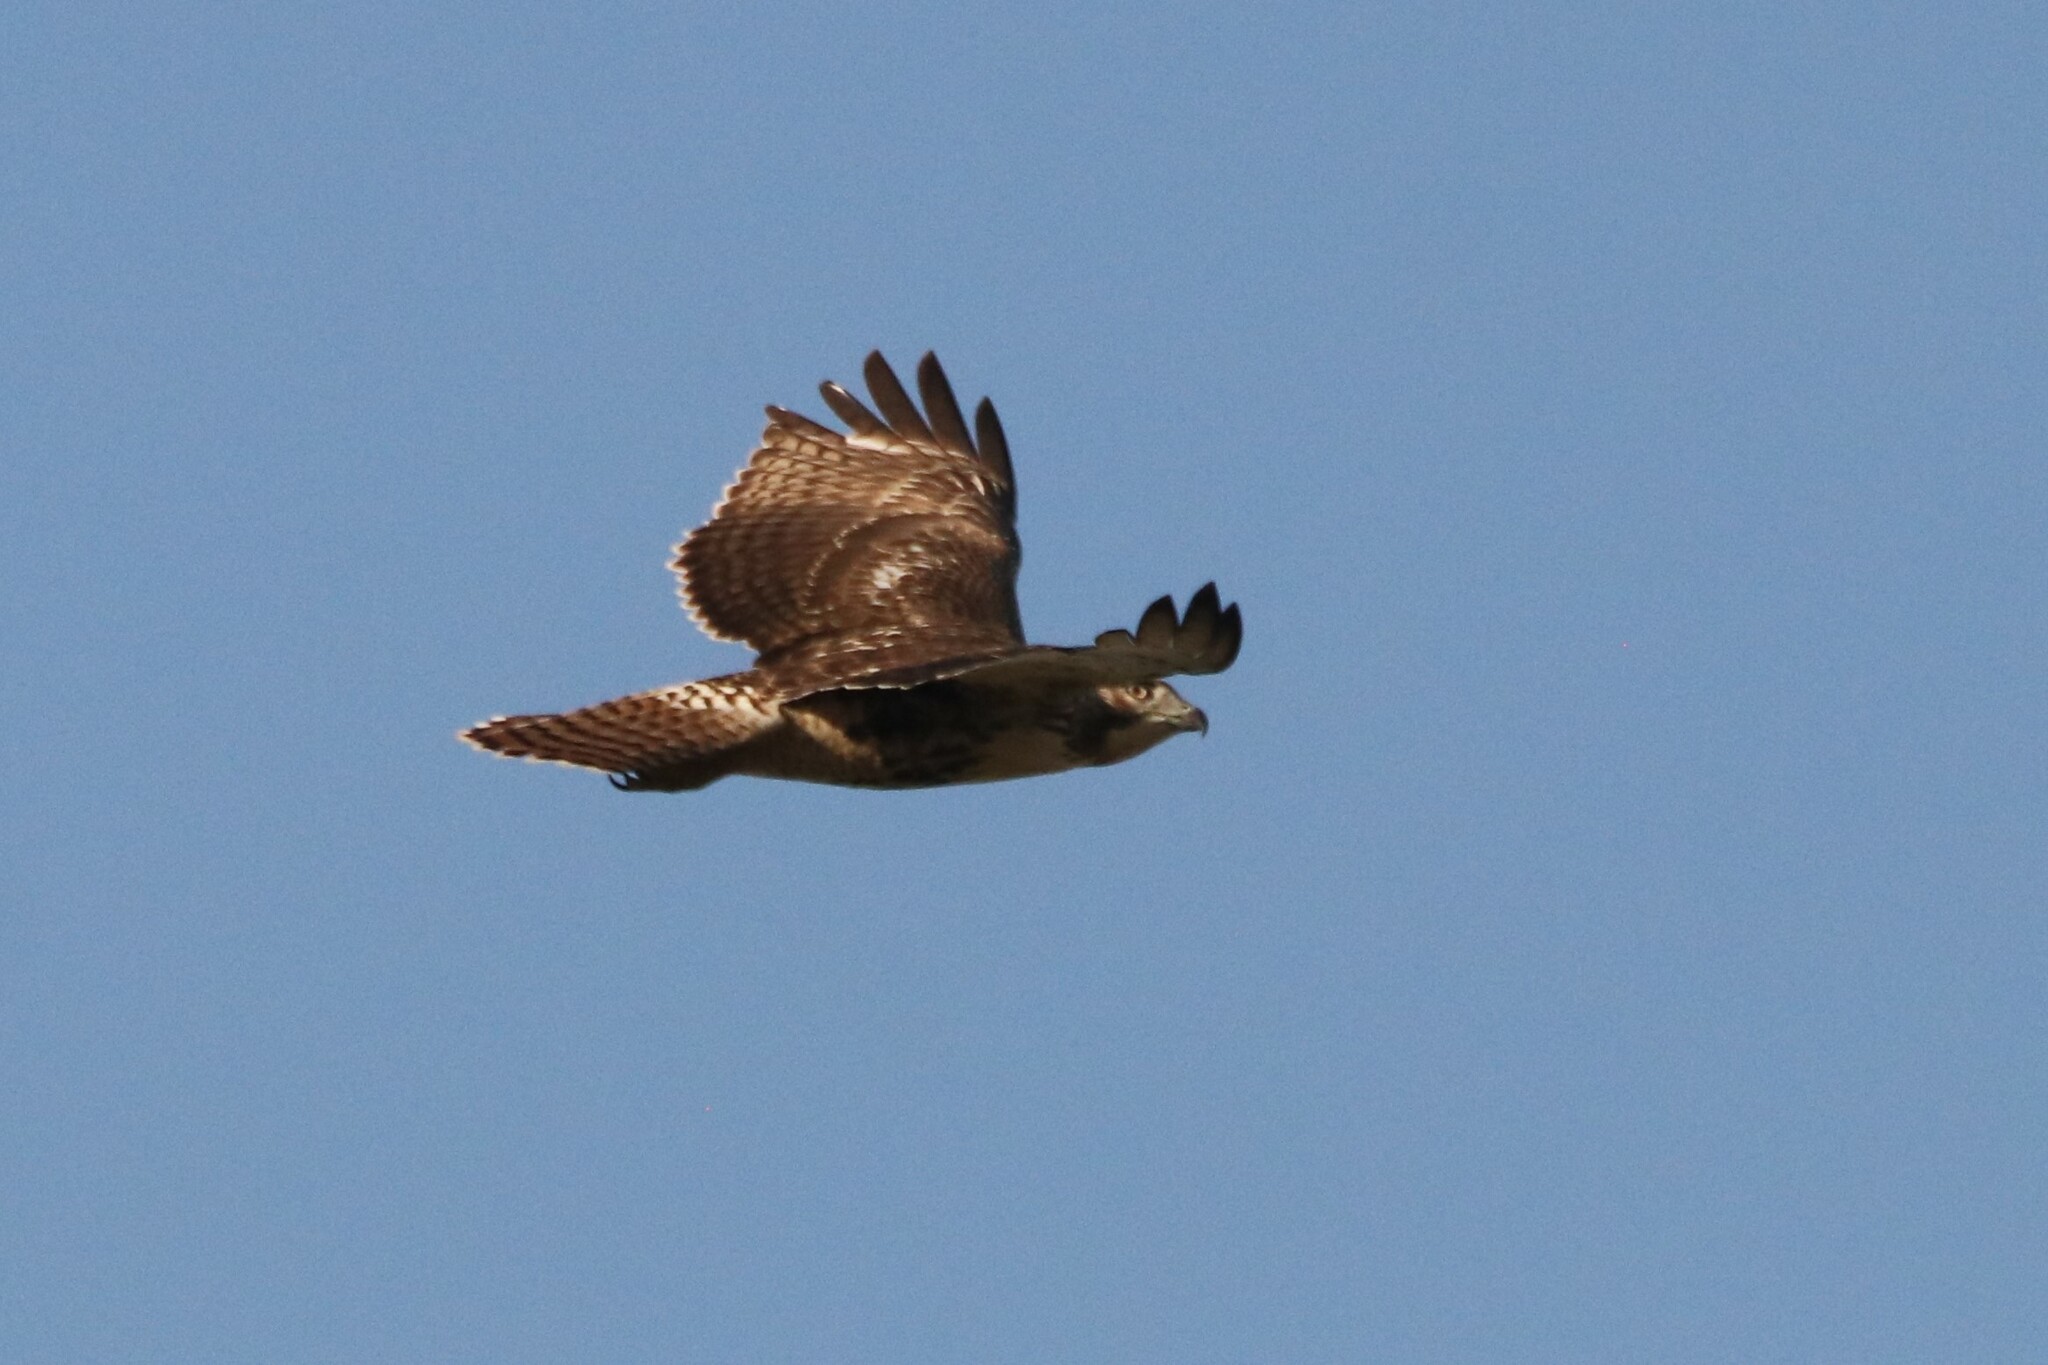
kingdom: Animalia
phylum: Chordata
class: Aves
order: Accipitriformes
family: Accipitridae
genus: Buteo
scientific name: Buteo jamaicensis
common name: Red-tailed hawk
